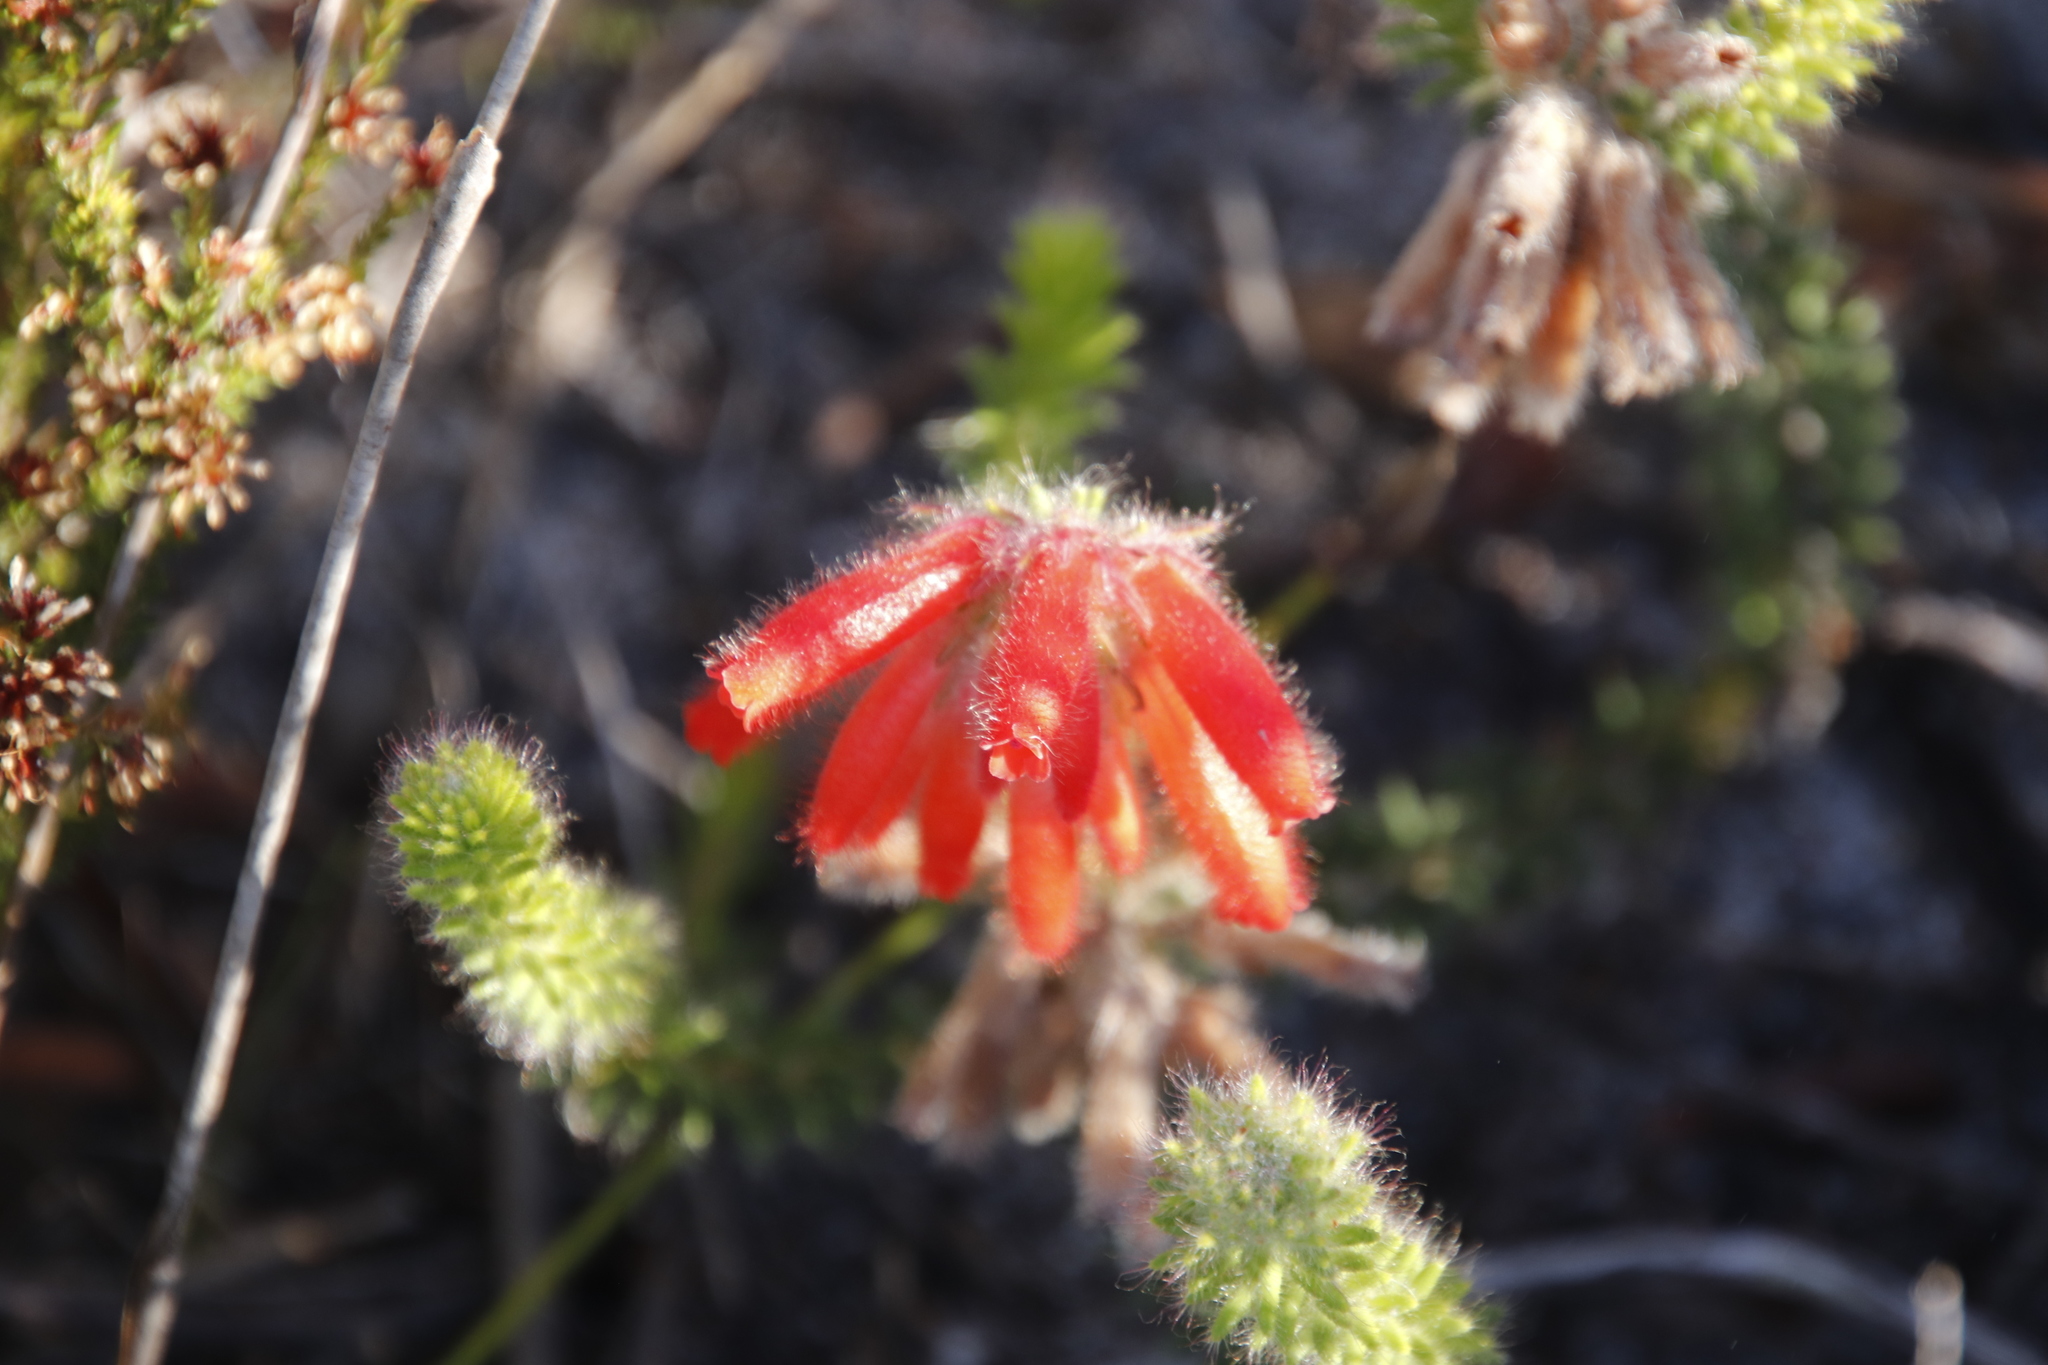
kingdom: Plantae
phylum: Tracheophyta
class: Magnoliopsida
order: Ericales
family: Ericaceae
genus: Erica
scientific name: Erica cerinthoides
